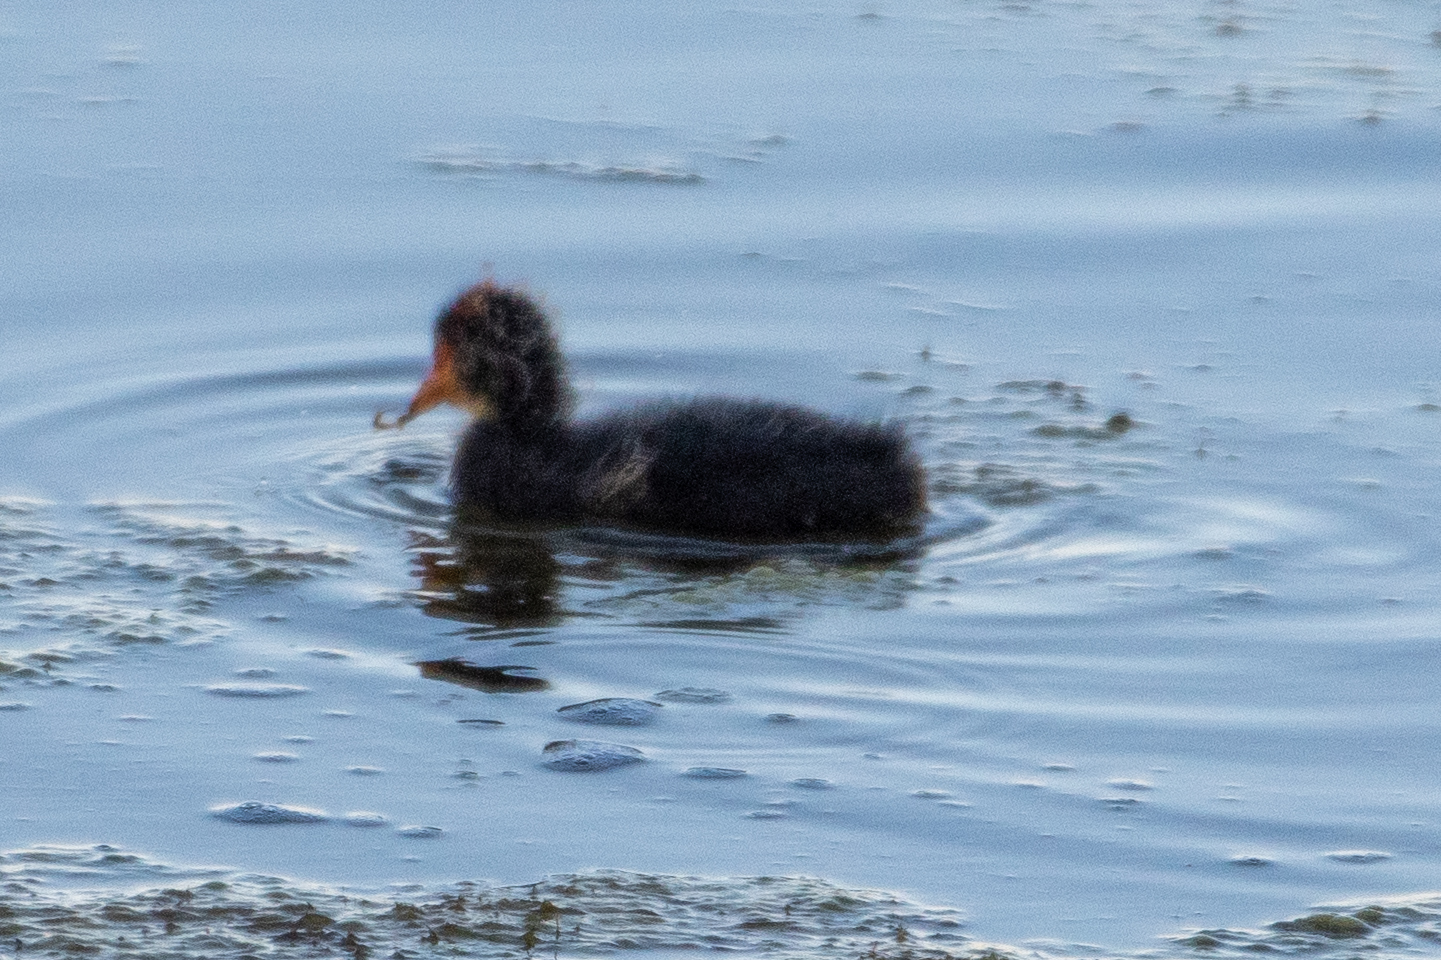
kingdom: Animalia
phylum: Chordata
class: Aves
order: Gruiformes
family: Rallidae
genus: Fulica
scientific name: Fulica americana
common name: American coot
